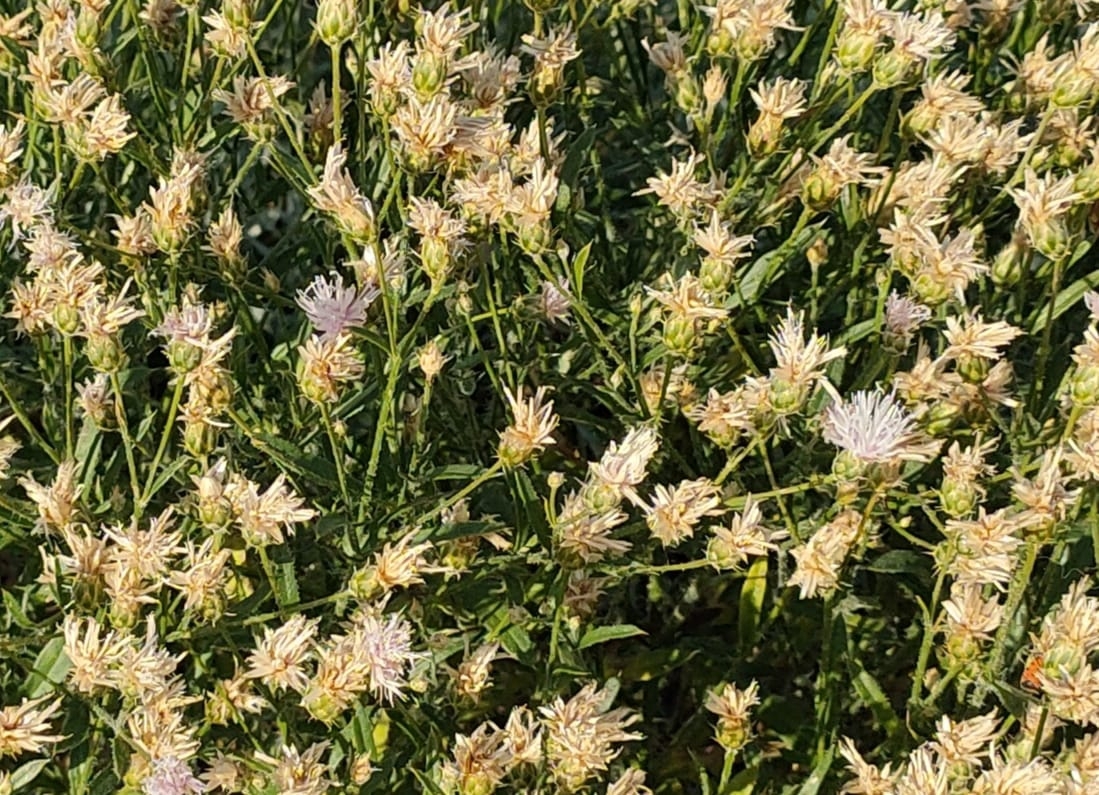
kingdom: Plantae
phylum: Tracheophyta
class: Magnoliopsida
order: Asterales
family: Asteraceae
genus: Klasea
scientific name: Klasea erucifolia
